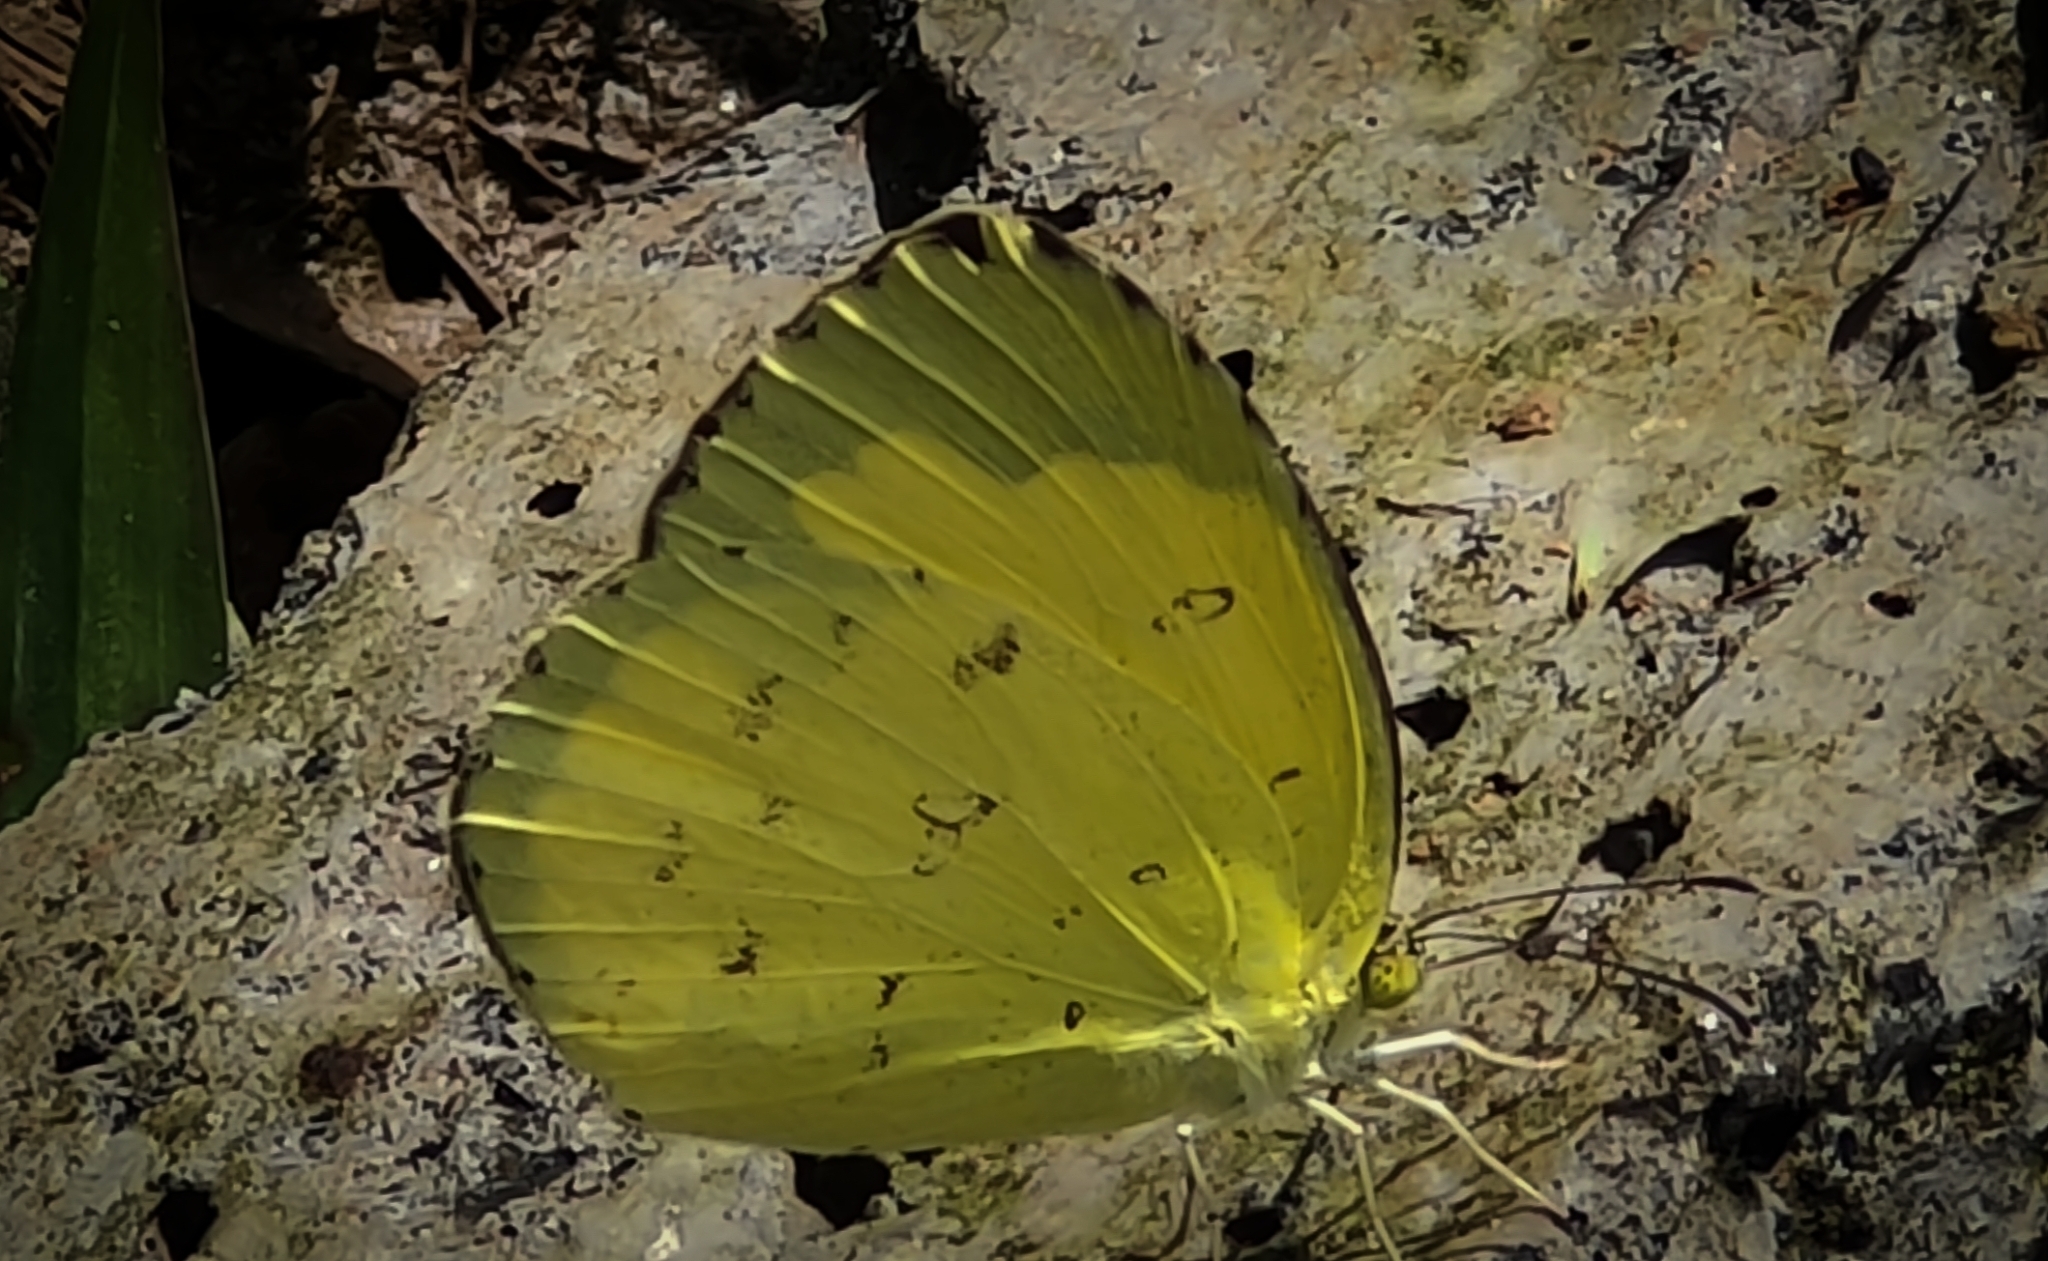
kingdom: Animalia
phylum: Arthropoda
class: Insecta
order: Lepidoptera
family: Pieridae
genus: Eurema
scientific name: Eurema hecabe
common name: Pale grass yellow
